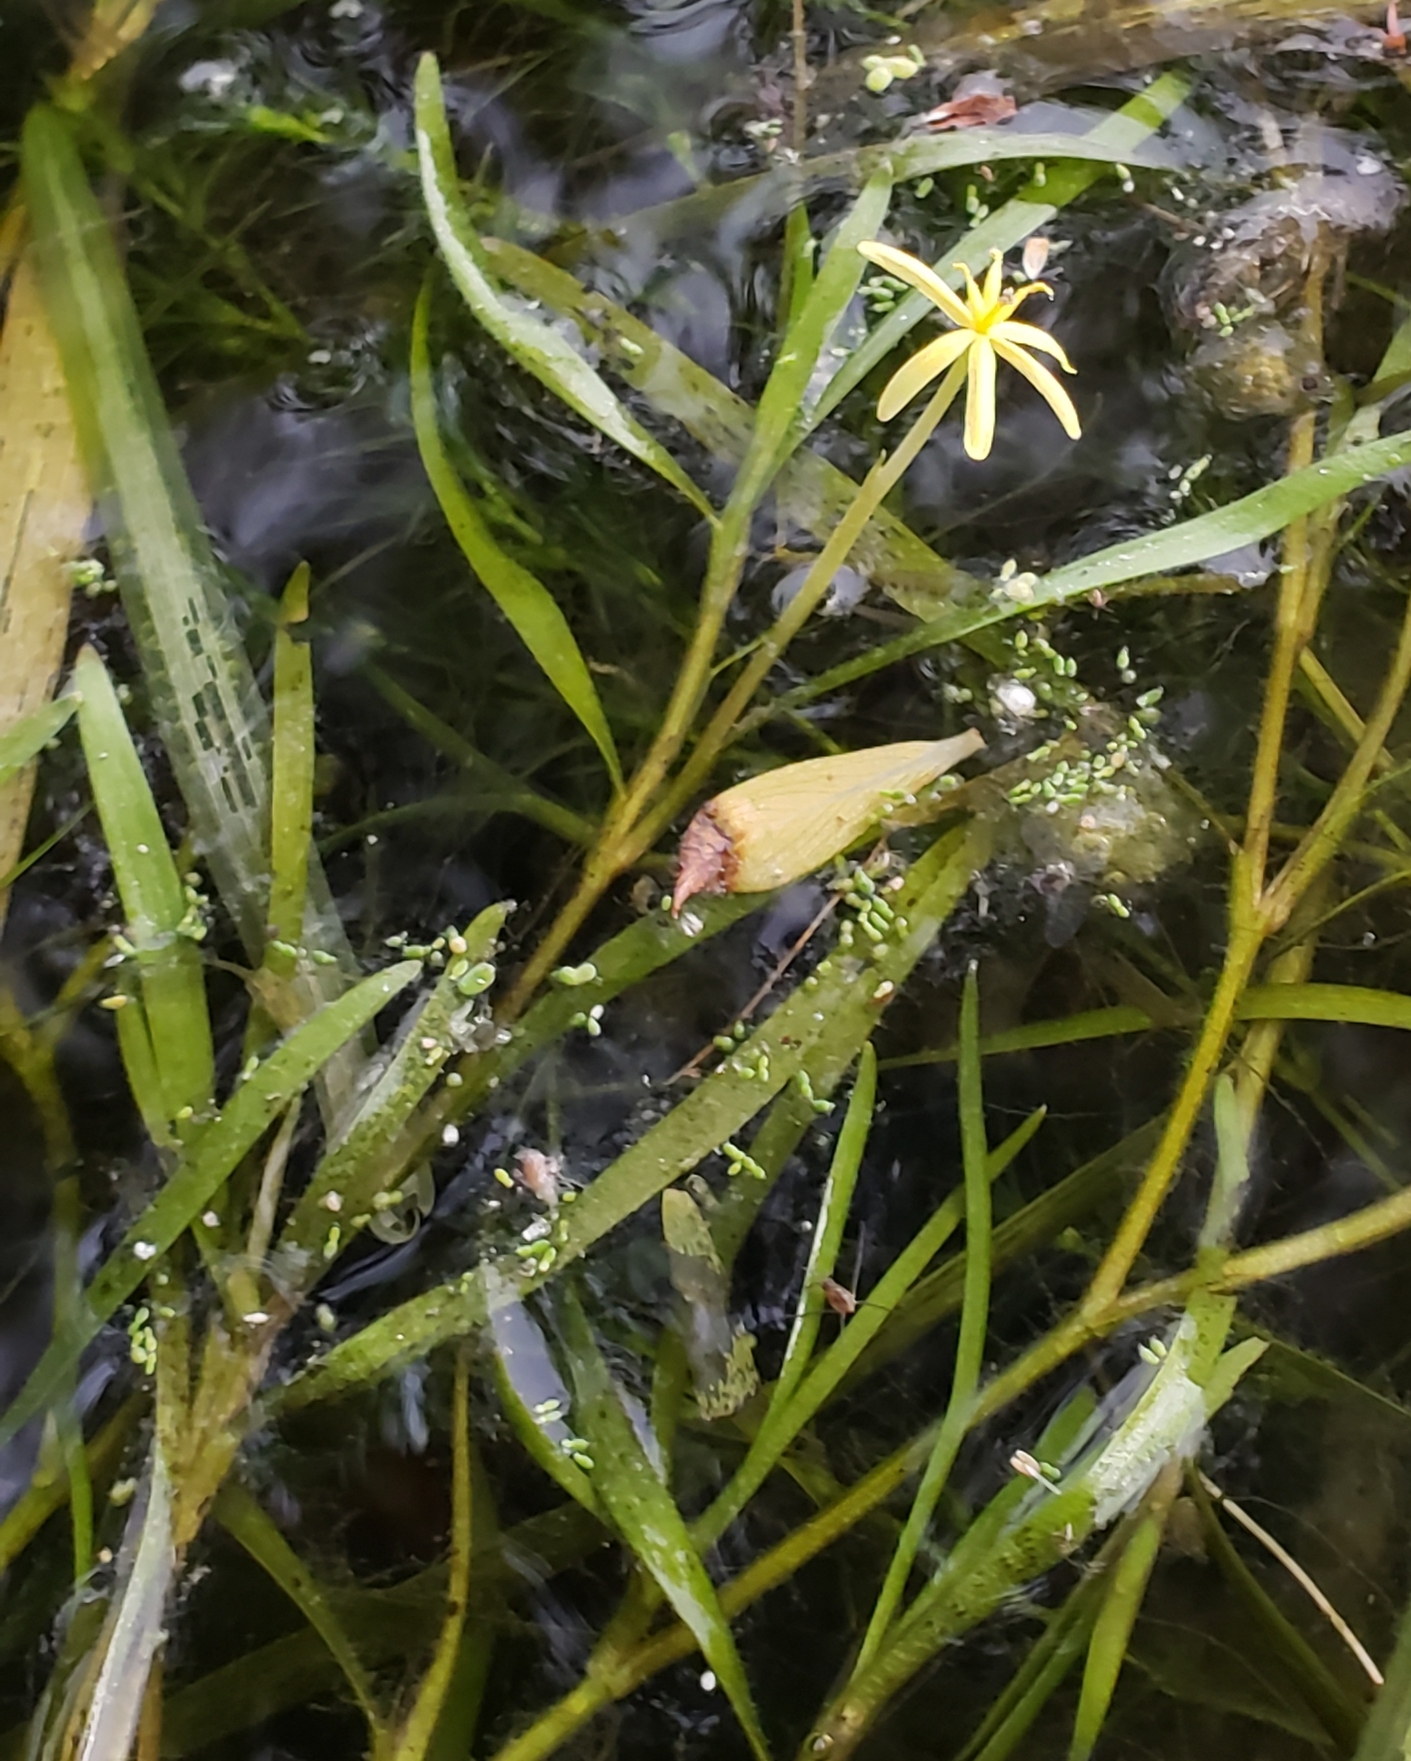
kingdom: Plantae
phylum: Tracheophyta
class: Liliopsida
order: Commelinales
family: Pontederiaceae
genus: Heteranthera
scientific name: Heteranthera dubia
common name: Grass-leaved mud plantain
